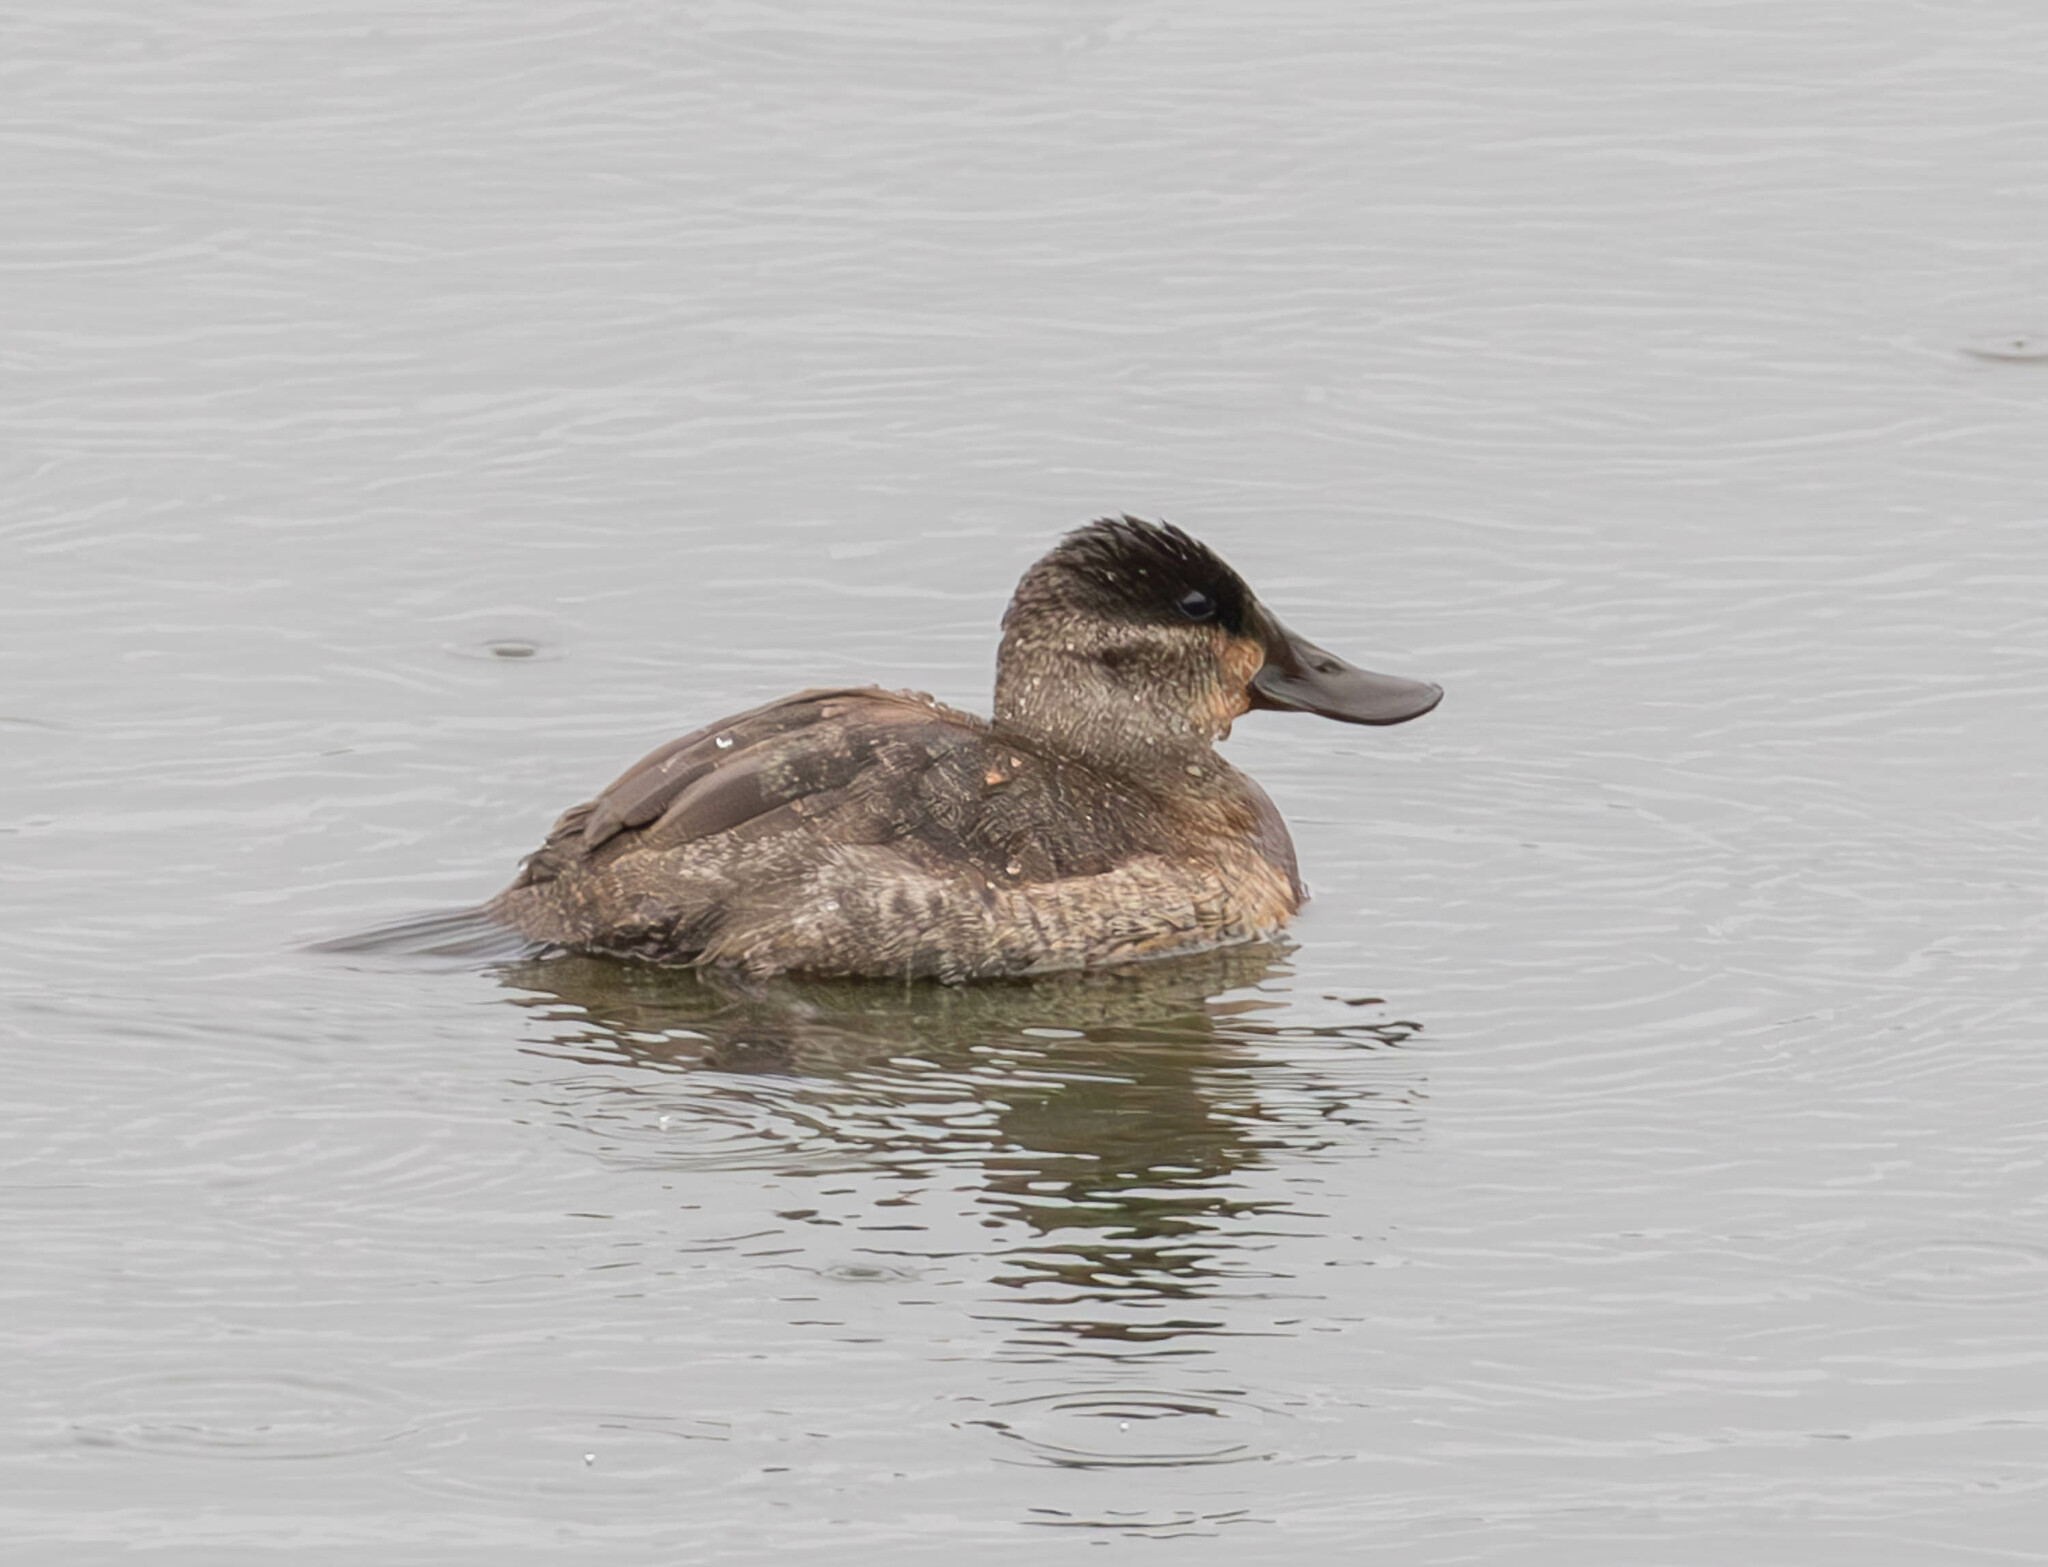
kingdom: Animalia
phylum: Chordata
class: Aves
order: Anseriformes
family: Anatidae
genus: Oxyura
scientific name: Oxyura jamaicensis
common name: Ruddy duck
